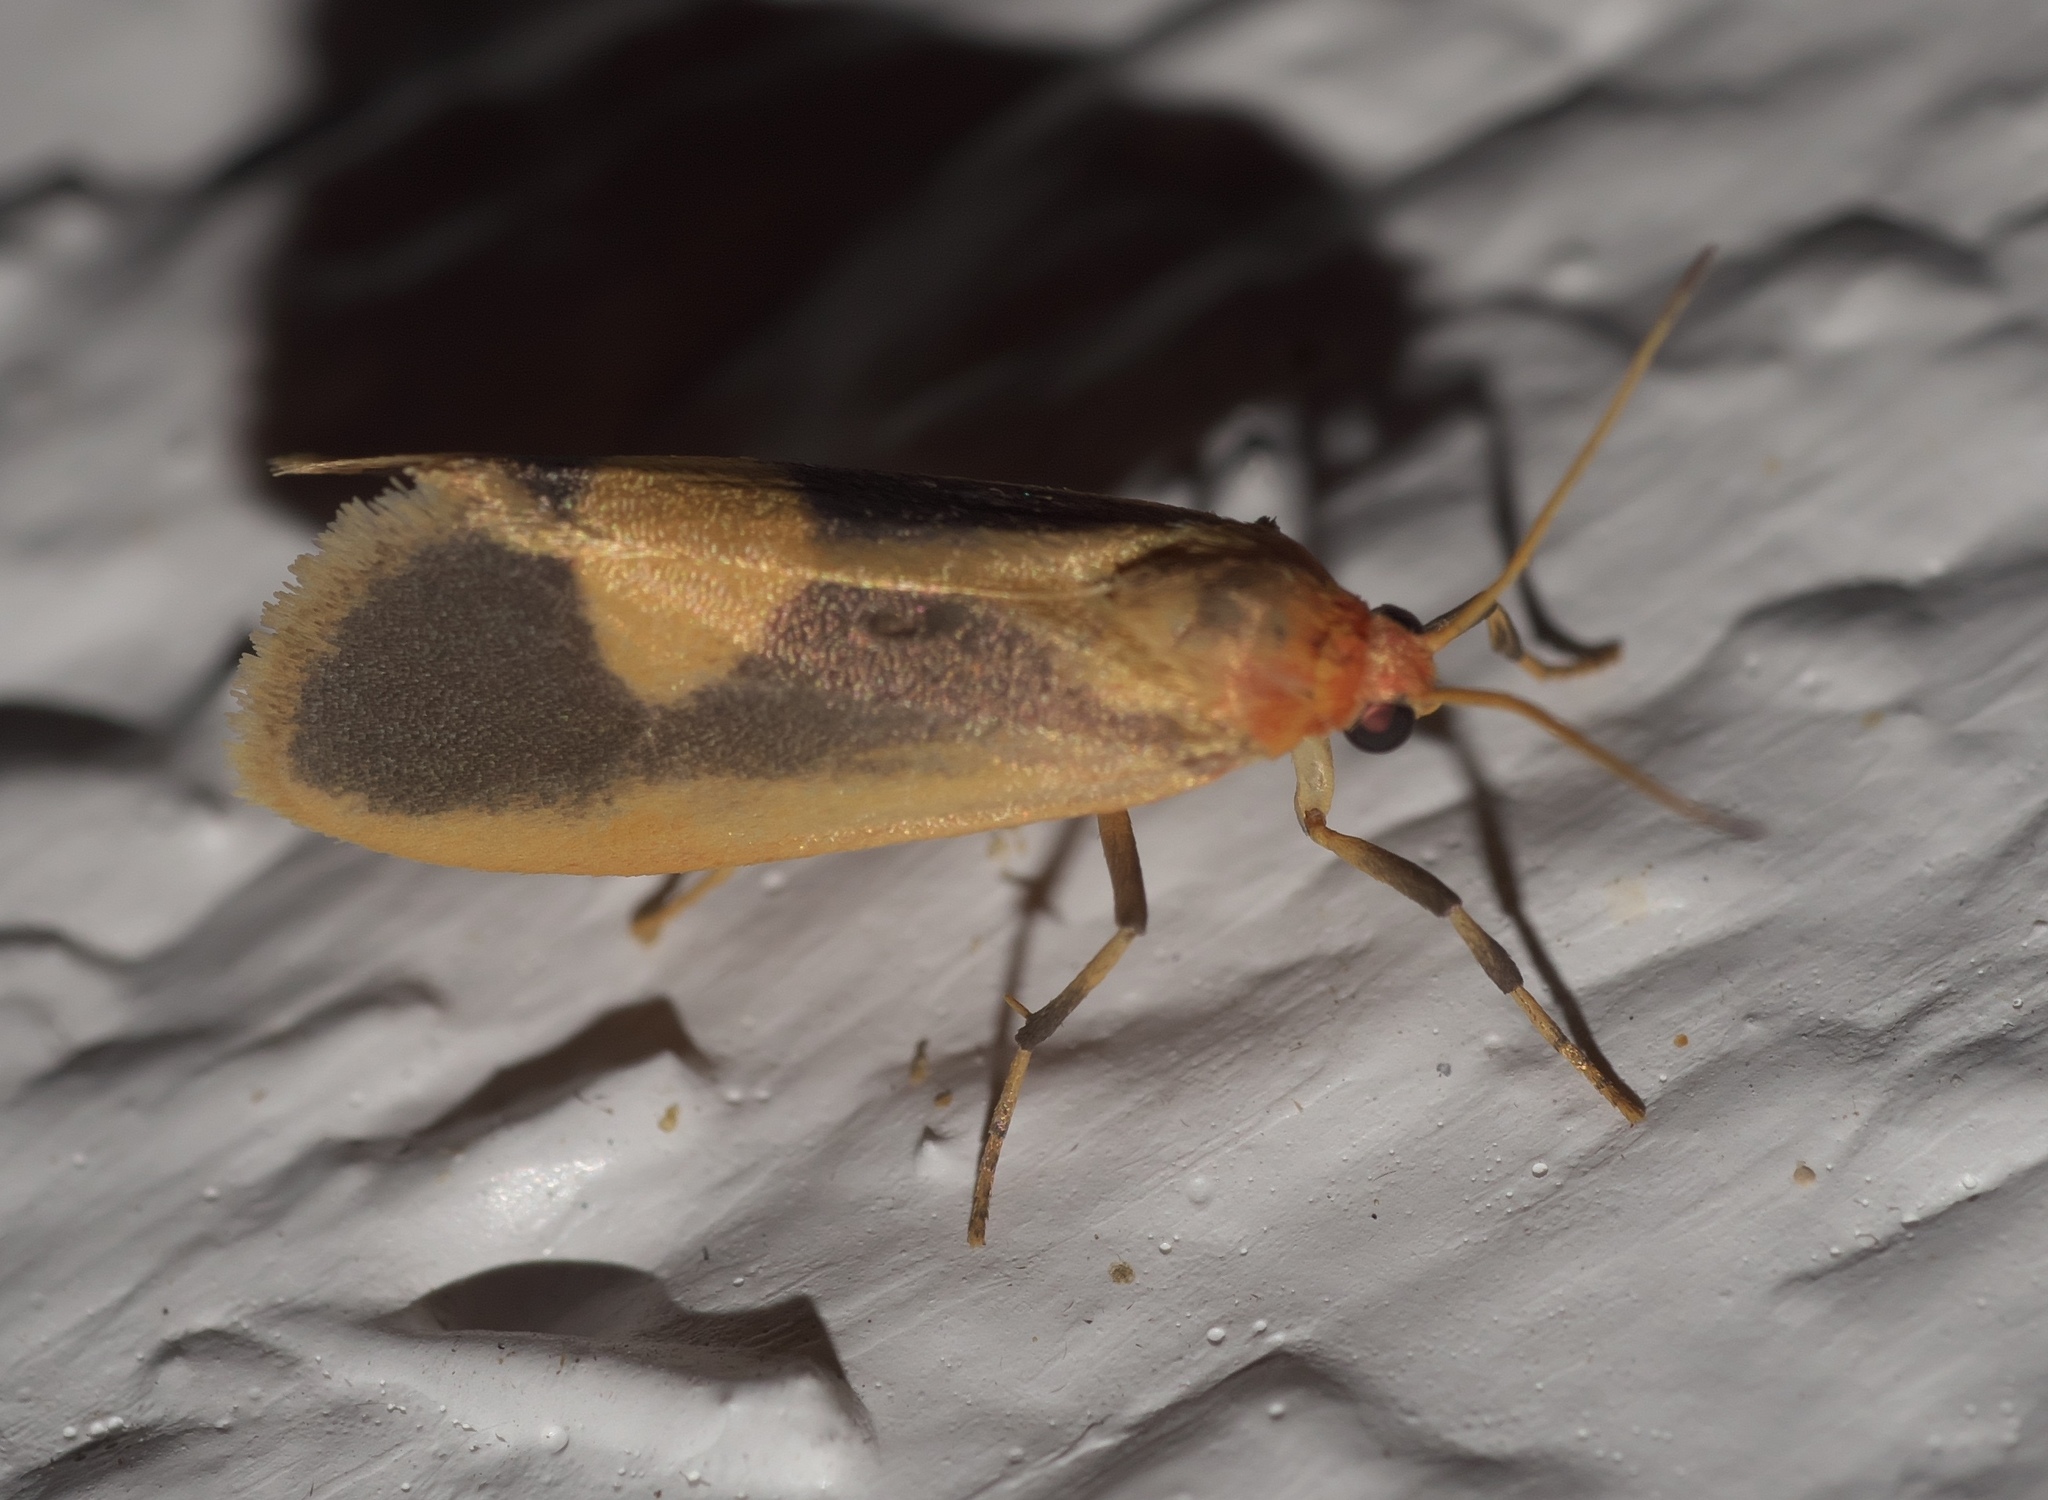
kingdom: Animalia
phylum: Arthropoda
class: Insecta
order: Lepidoptera
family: Erebidae
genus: Cisthene
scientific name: Cisthene plumbea
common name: Lead colored lichen moth
